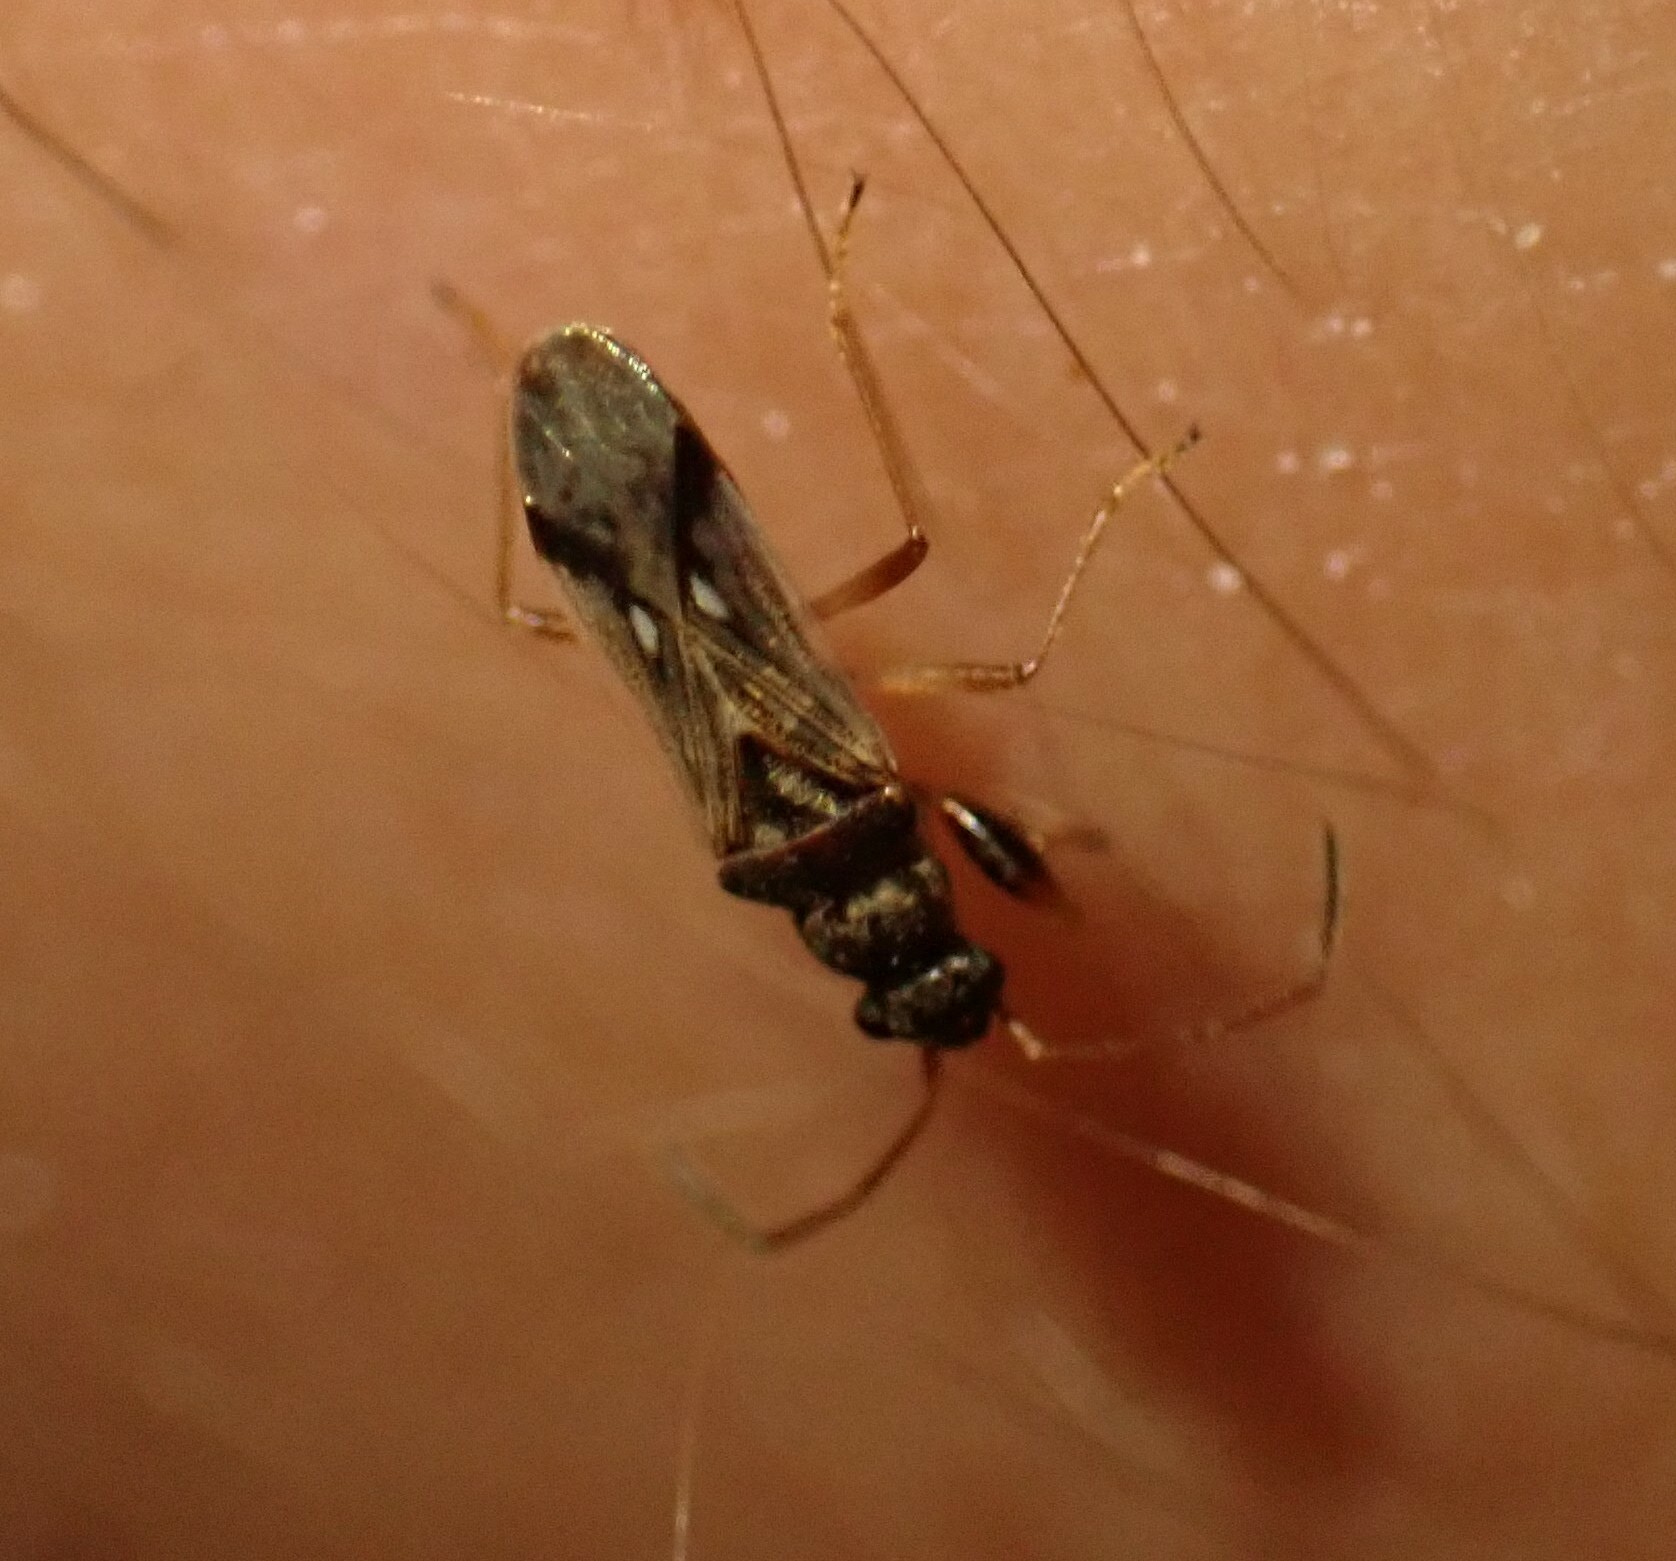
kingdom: Animalia
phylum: Arthropoda
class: Insecta
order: Hemiptera
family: Rhyparochromidae
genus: Pseudopachybrachius
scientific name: Pseudopachybrachius vinctus
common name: Dirt-colored seed bug
